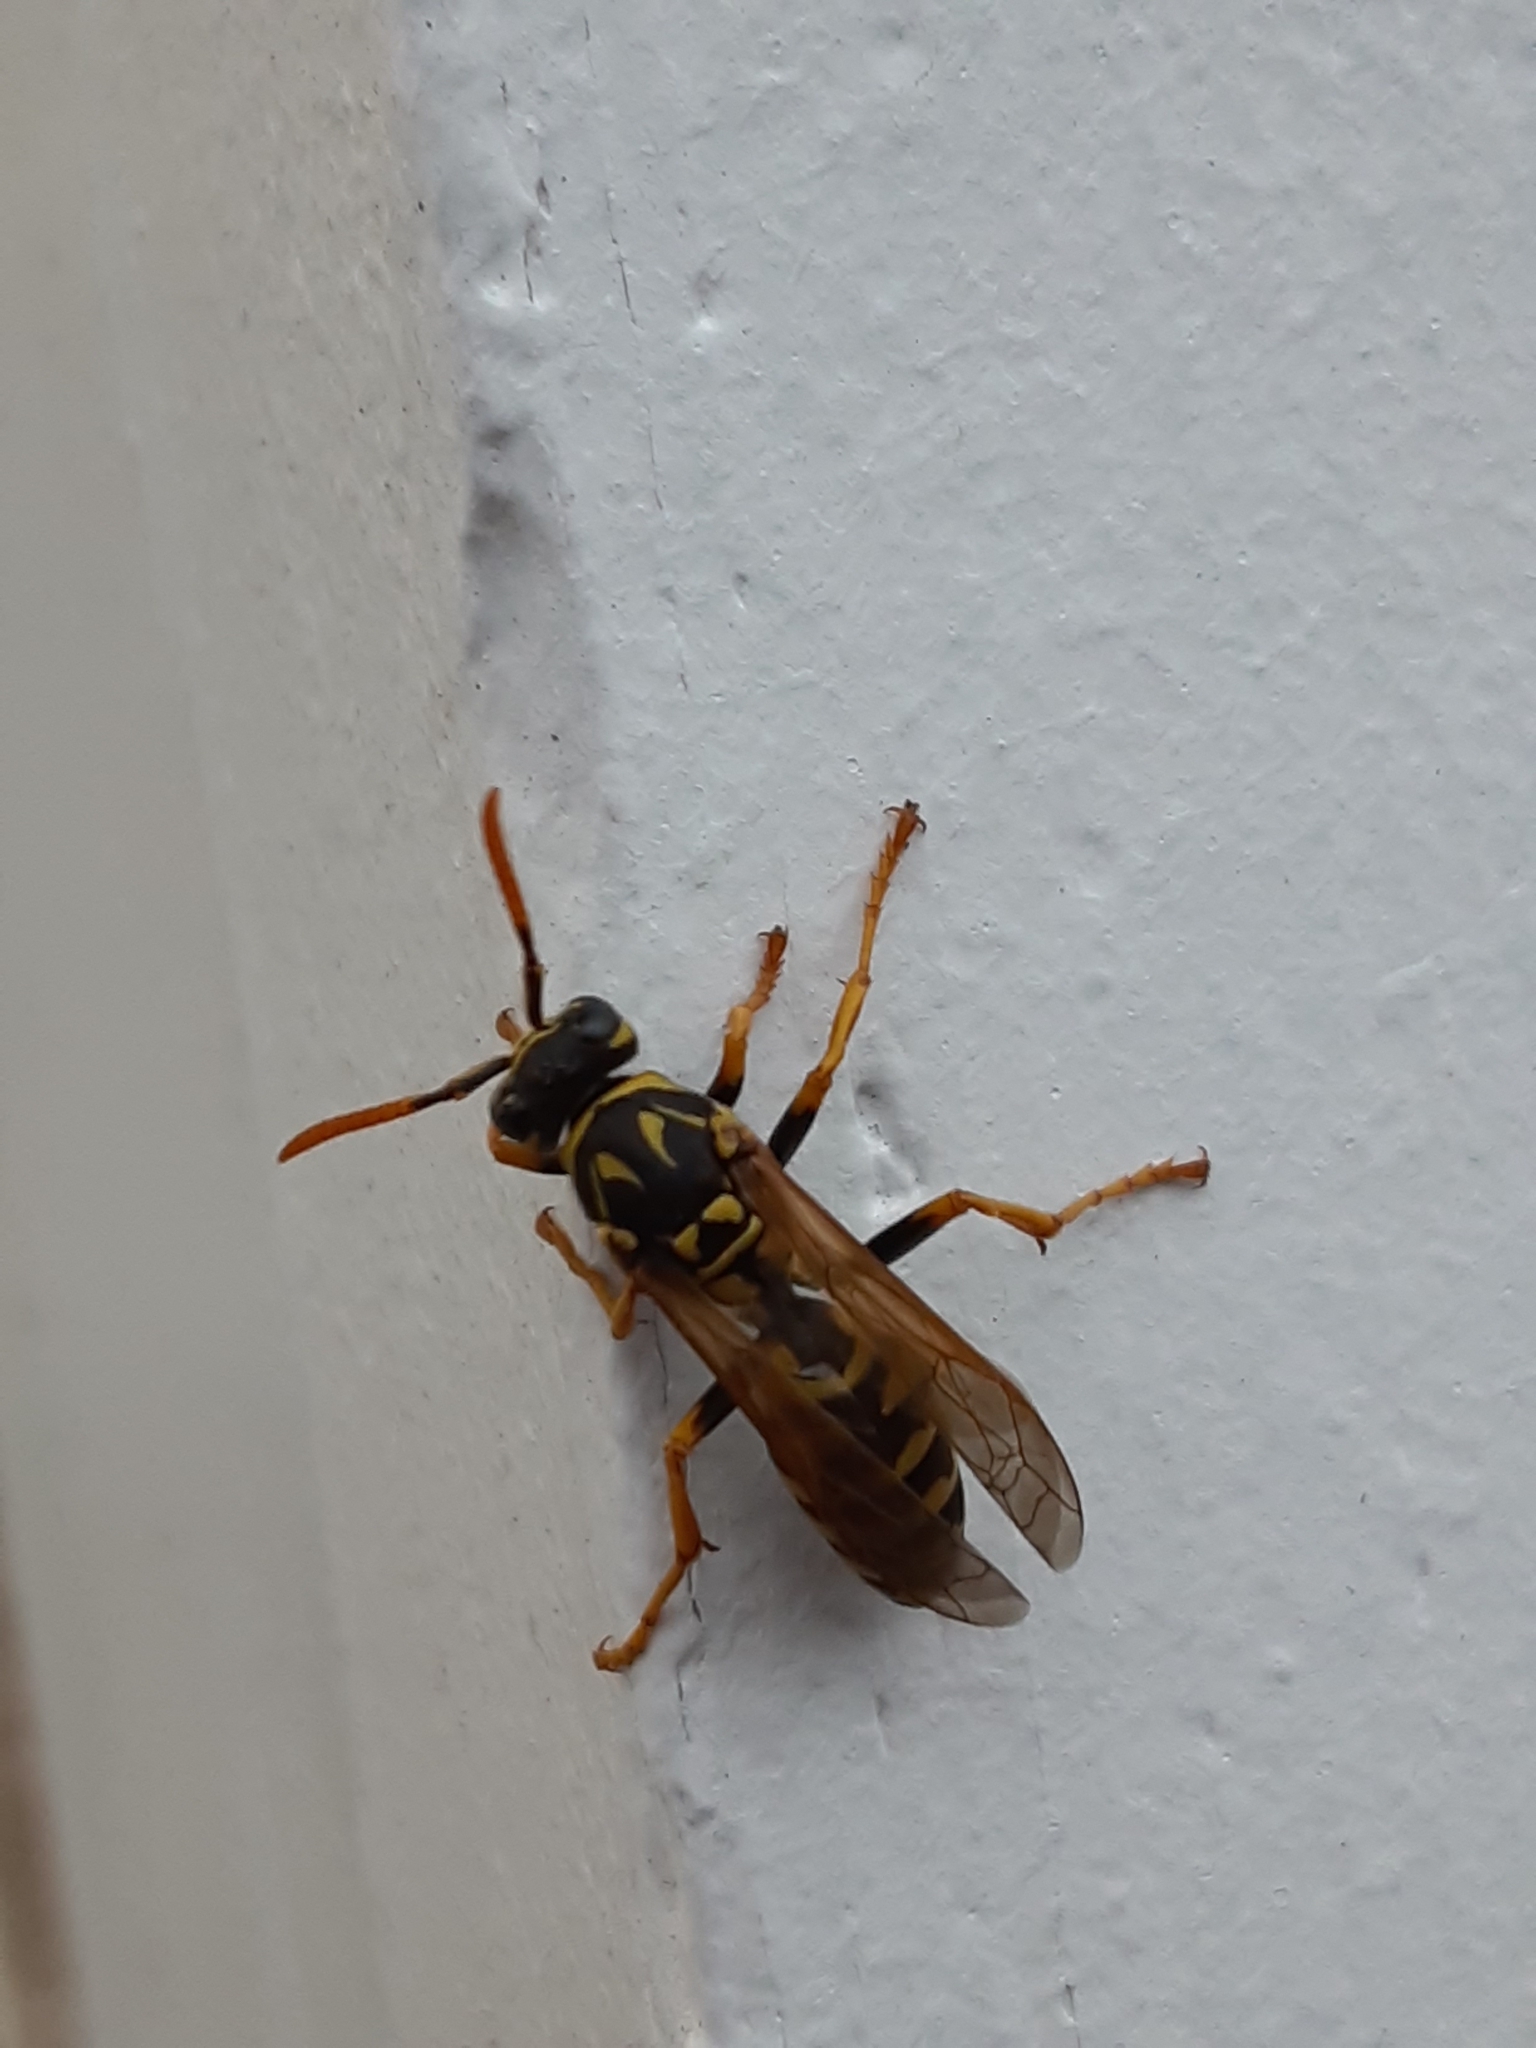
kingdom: Animalia
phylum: Arthropoda
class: Insecta
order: Hymenoptera
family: Eumenidae
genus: Polistes
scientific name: Polistes dominula
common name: Paper wasp
